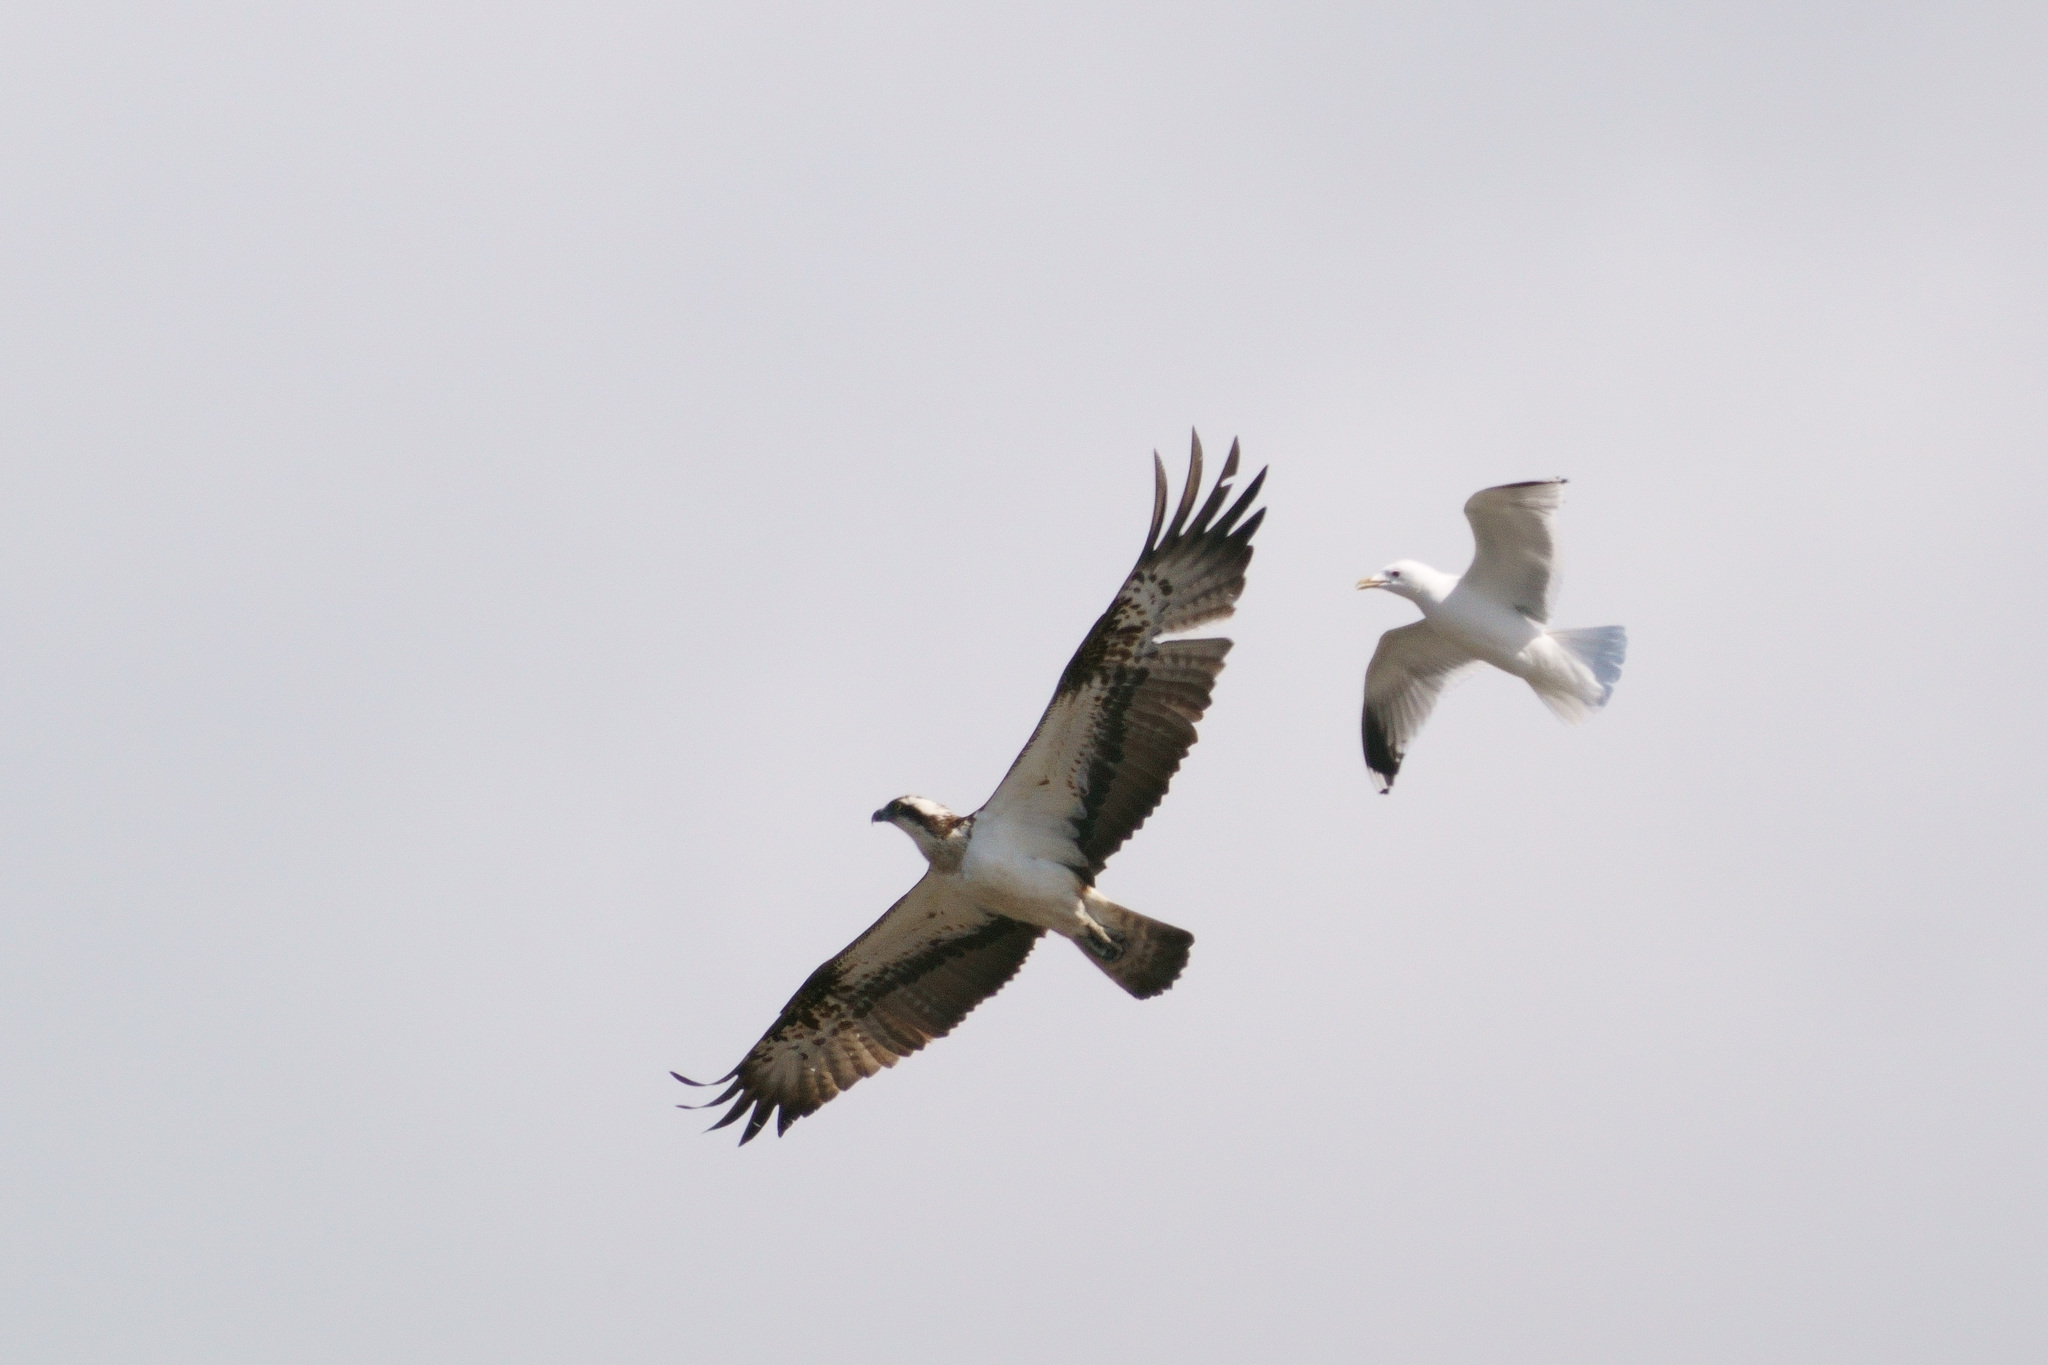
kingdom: Animalia
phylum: Chordata
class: Aves
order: Accipitriformes
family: Pandionidae
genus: Pandion
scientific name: Pandion haliaetus
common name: Osprey
